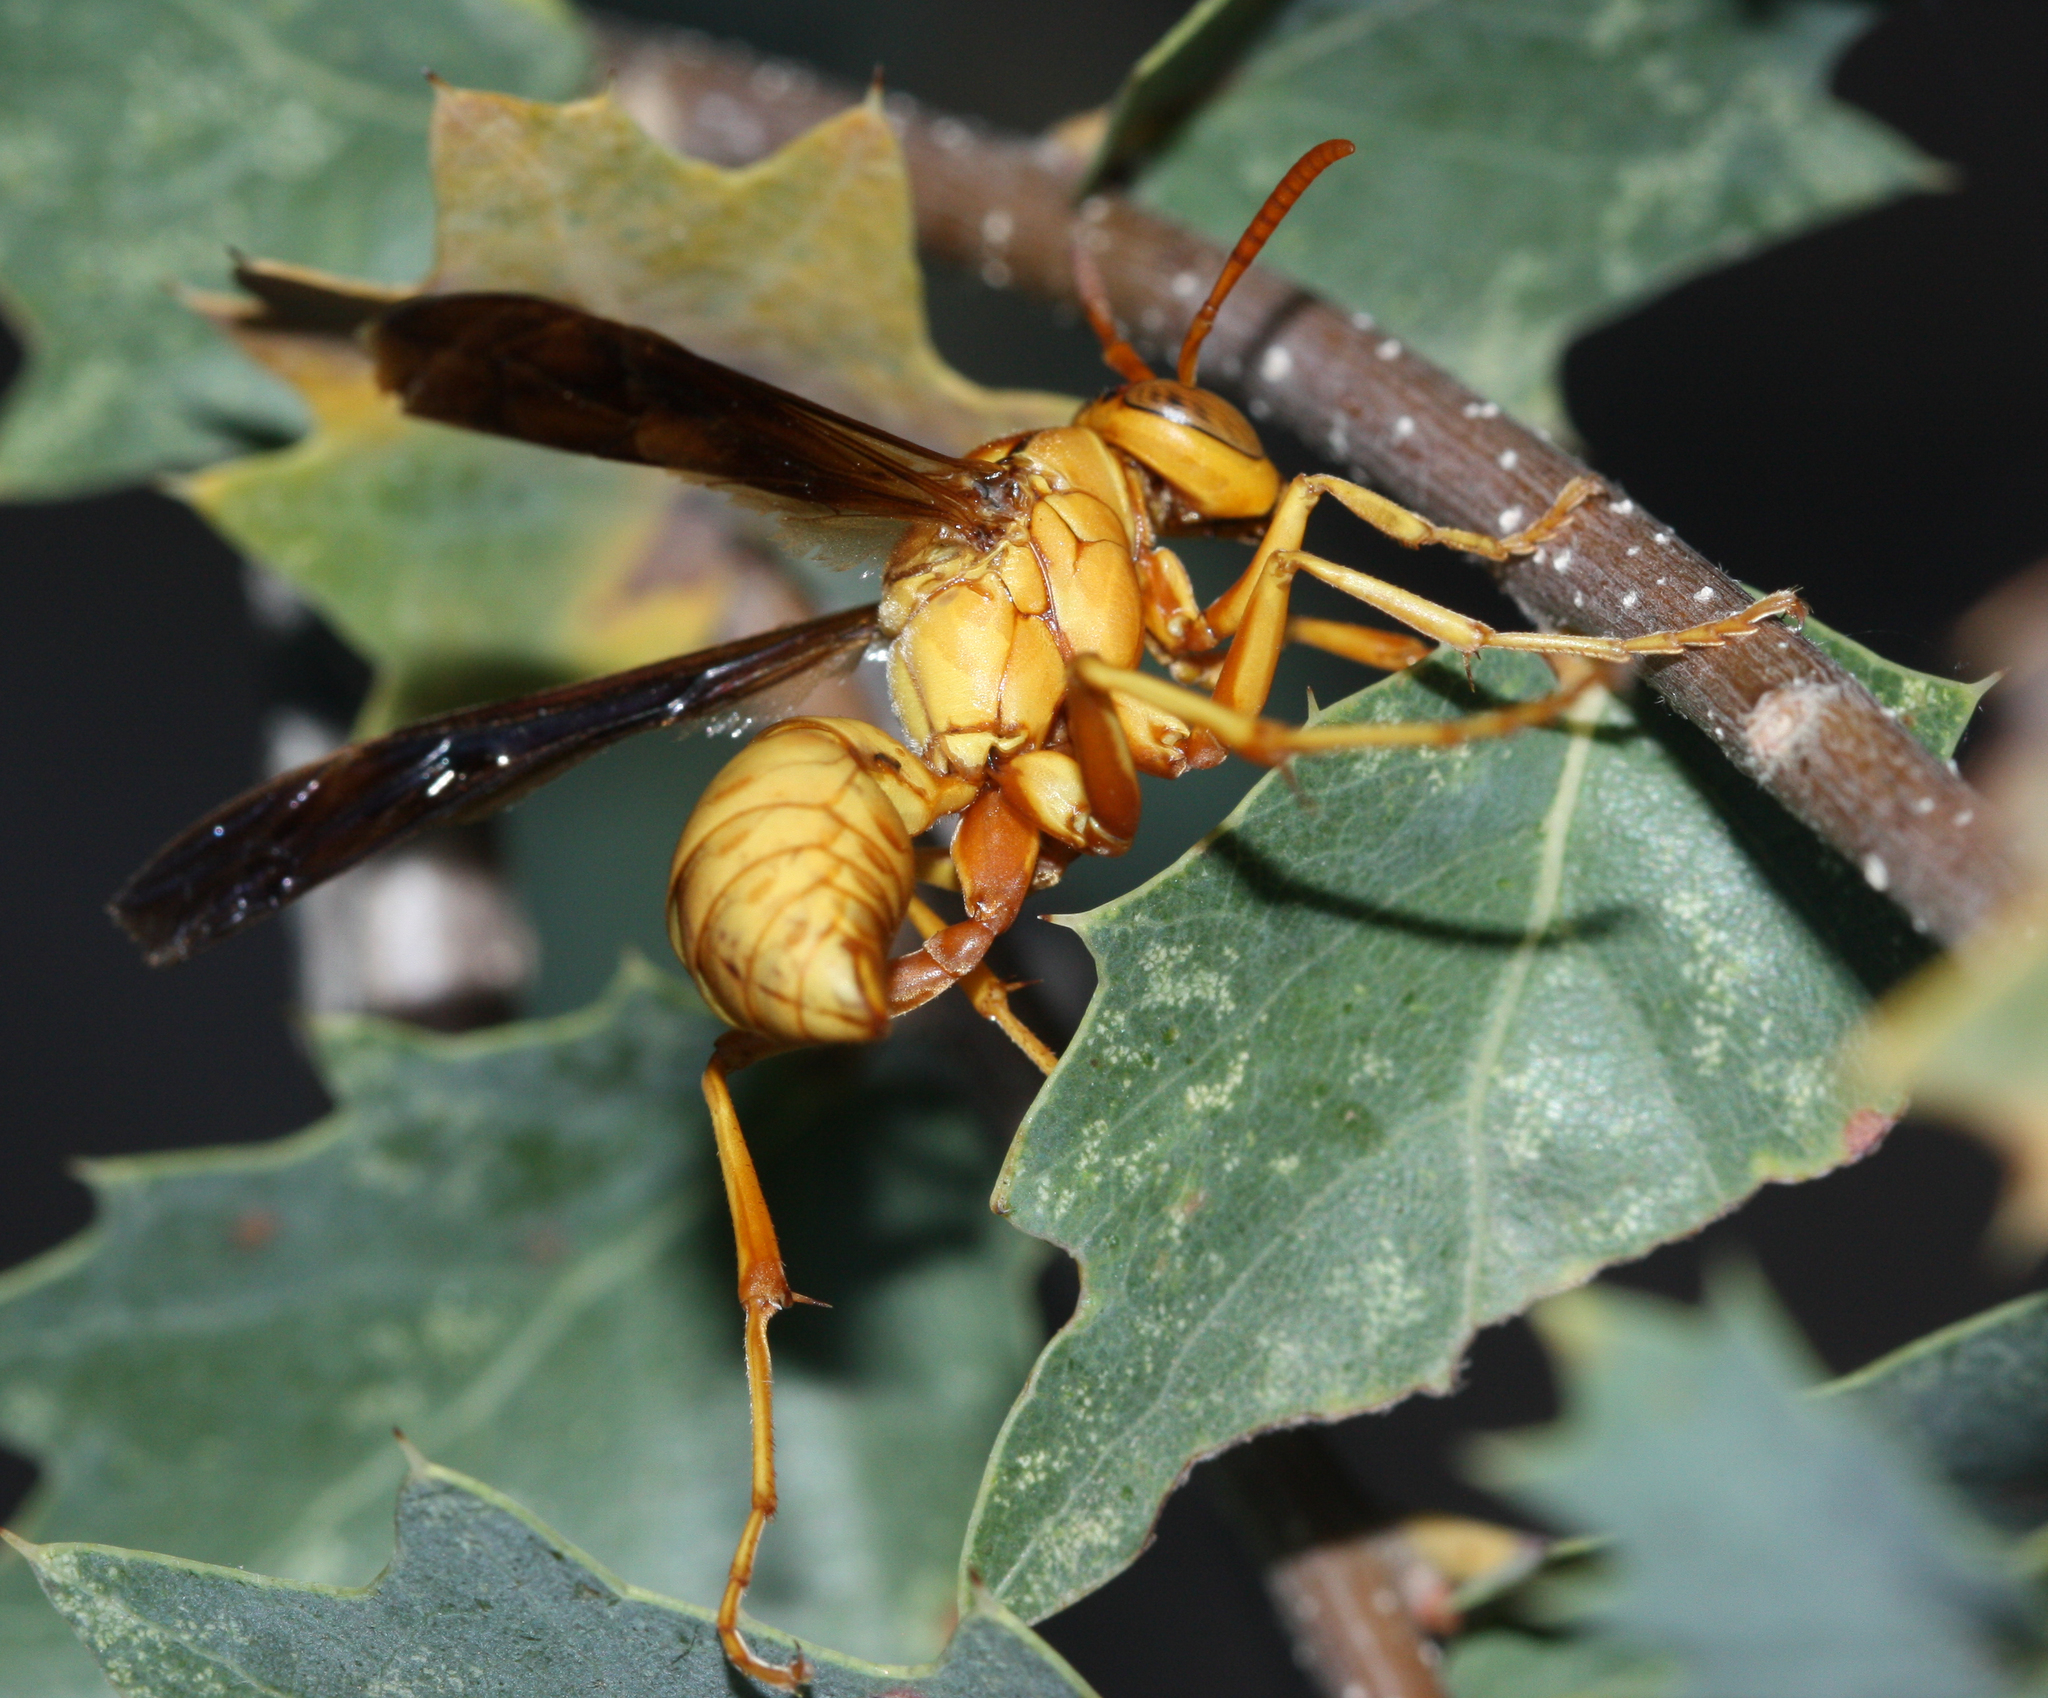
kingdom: Animalia
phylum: Arthropoda
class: Insecta
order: Hymenoptera
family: Eumenidae
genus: Polistes
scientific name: Polistes flavus
